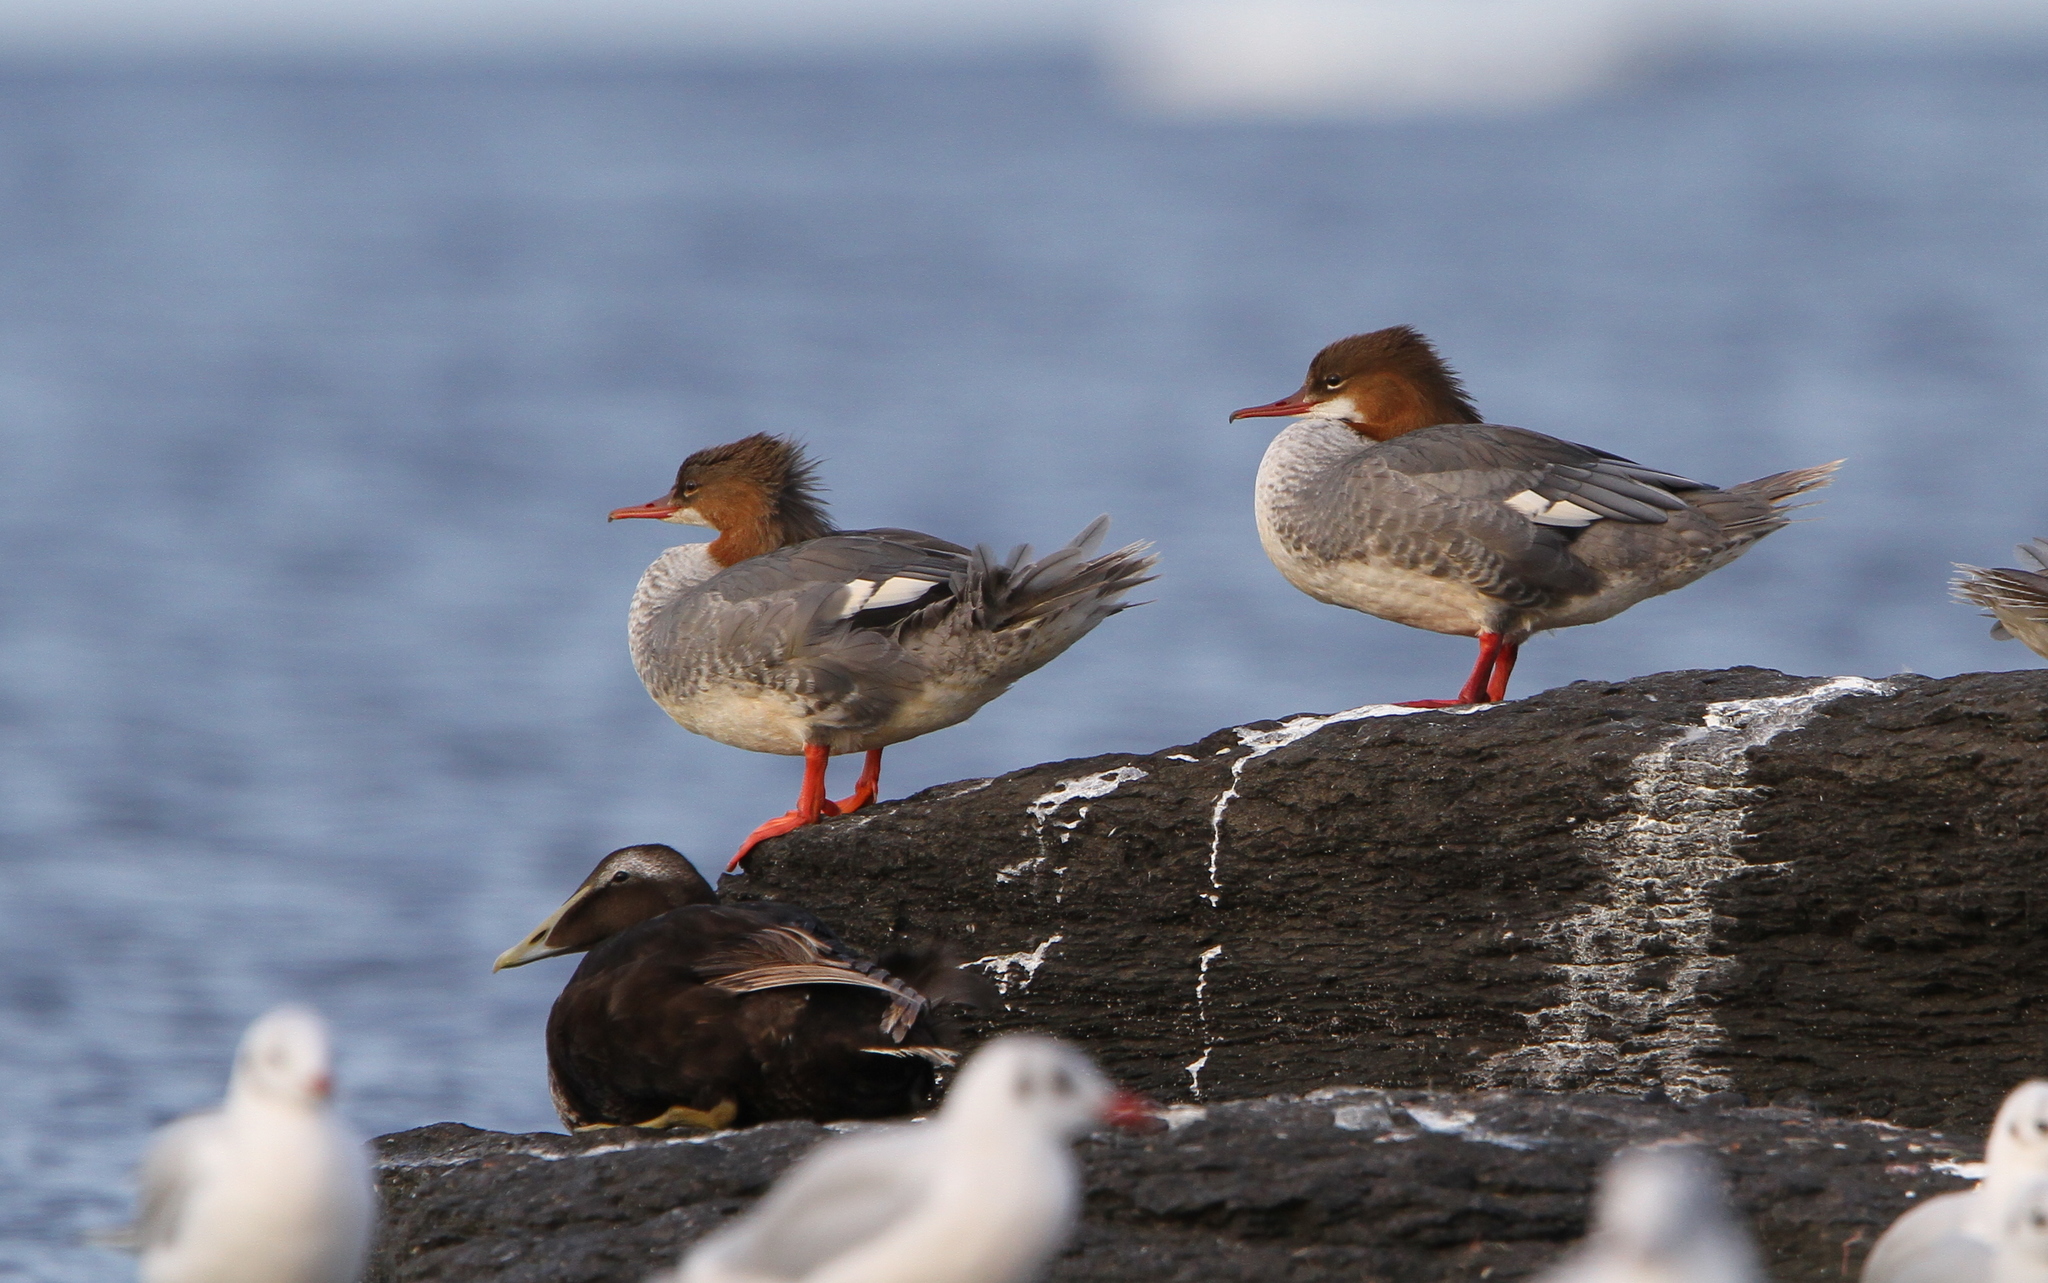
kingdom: Animalia
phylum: Chordata
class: Aves
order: Anseriformes
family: Anatidae
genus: Mergus
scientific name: Mergus merganser
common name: Common merganser
